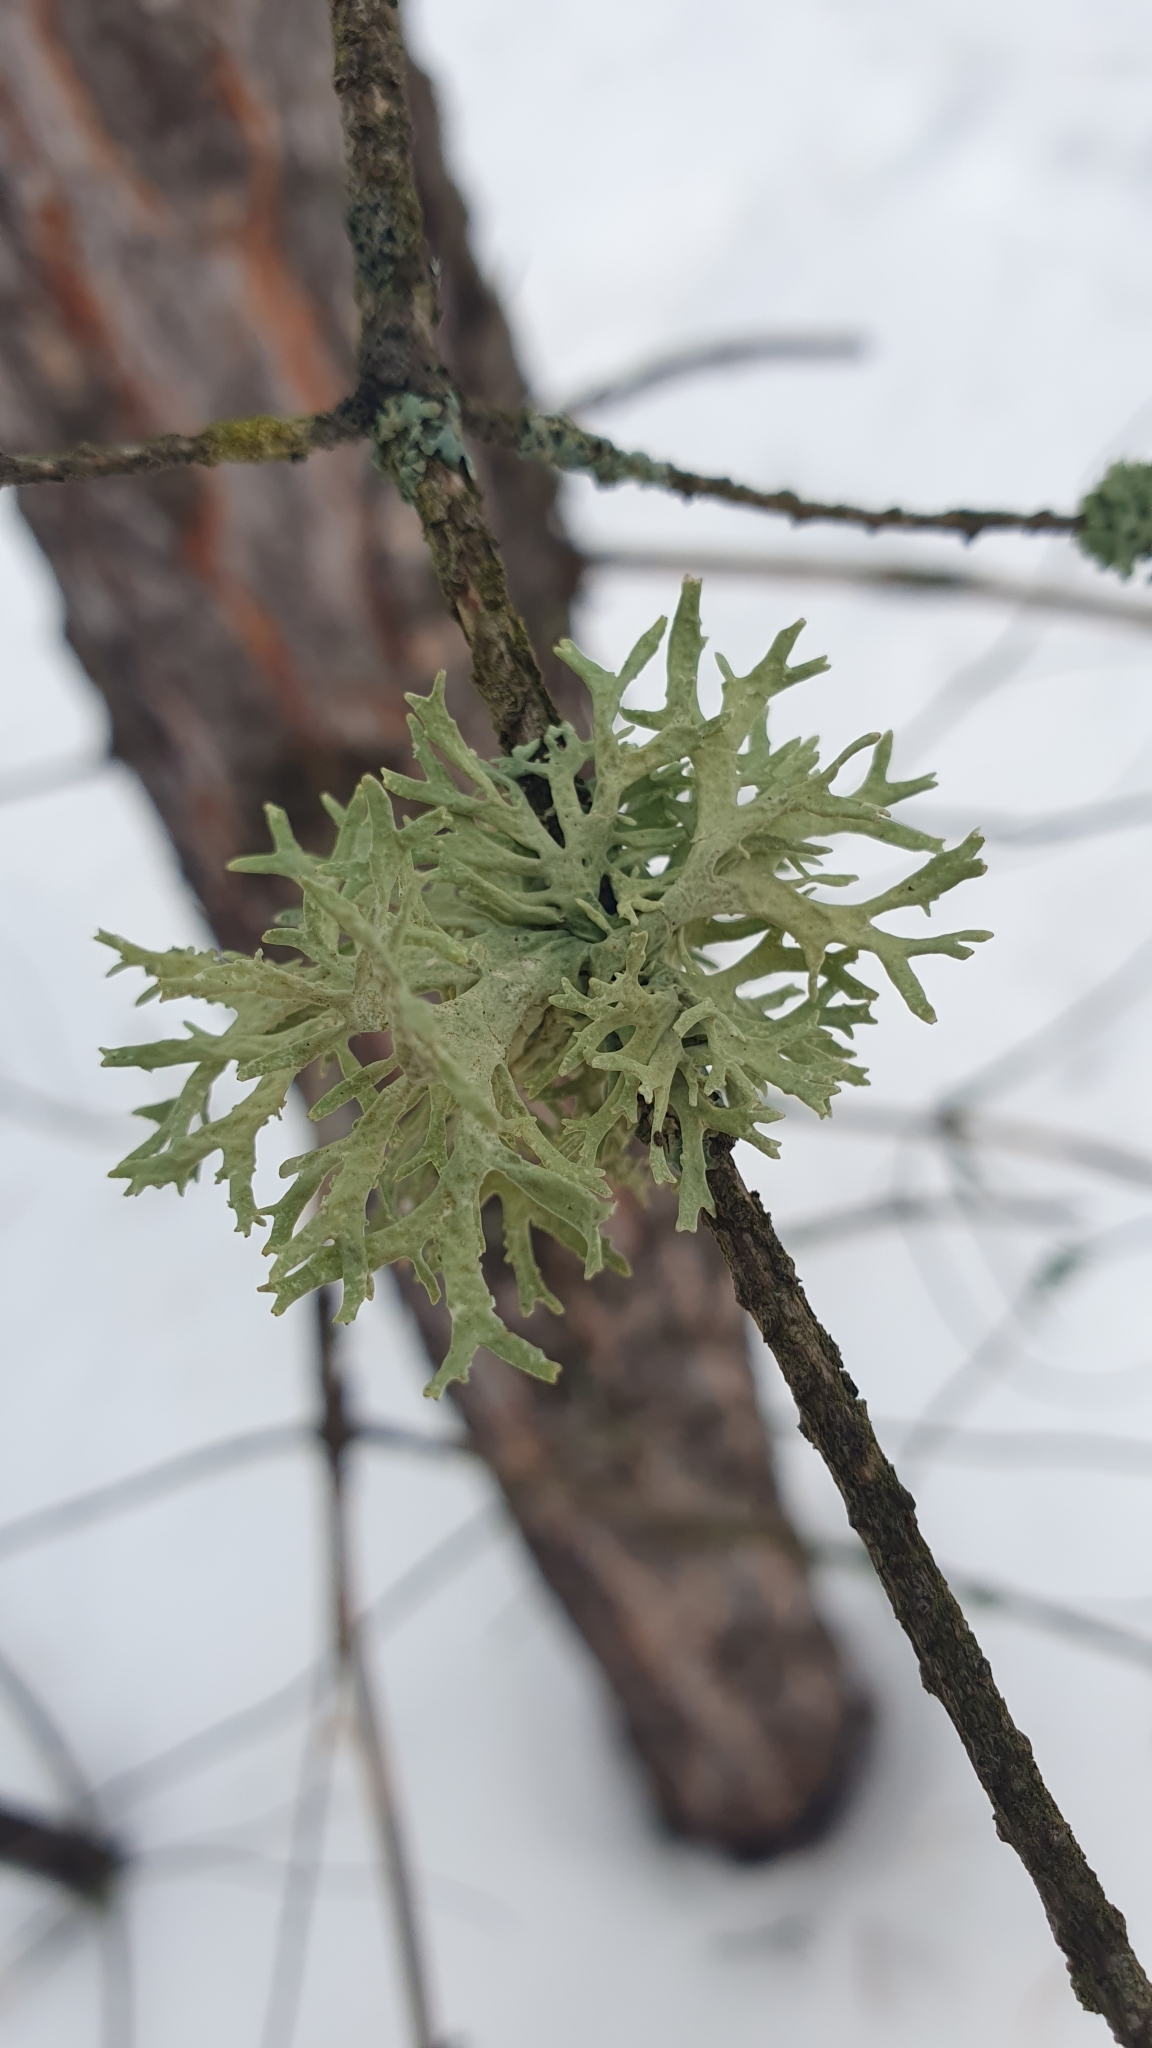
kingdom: Fungi
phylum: Ascomycota
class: Lecanoromycetes
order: Lecanorales
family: Parmeliaceae
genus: Evernia
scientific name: Evernia prunastri
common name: Oak moss
